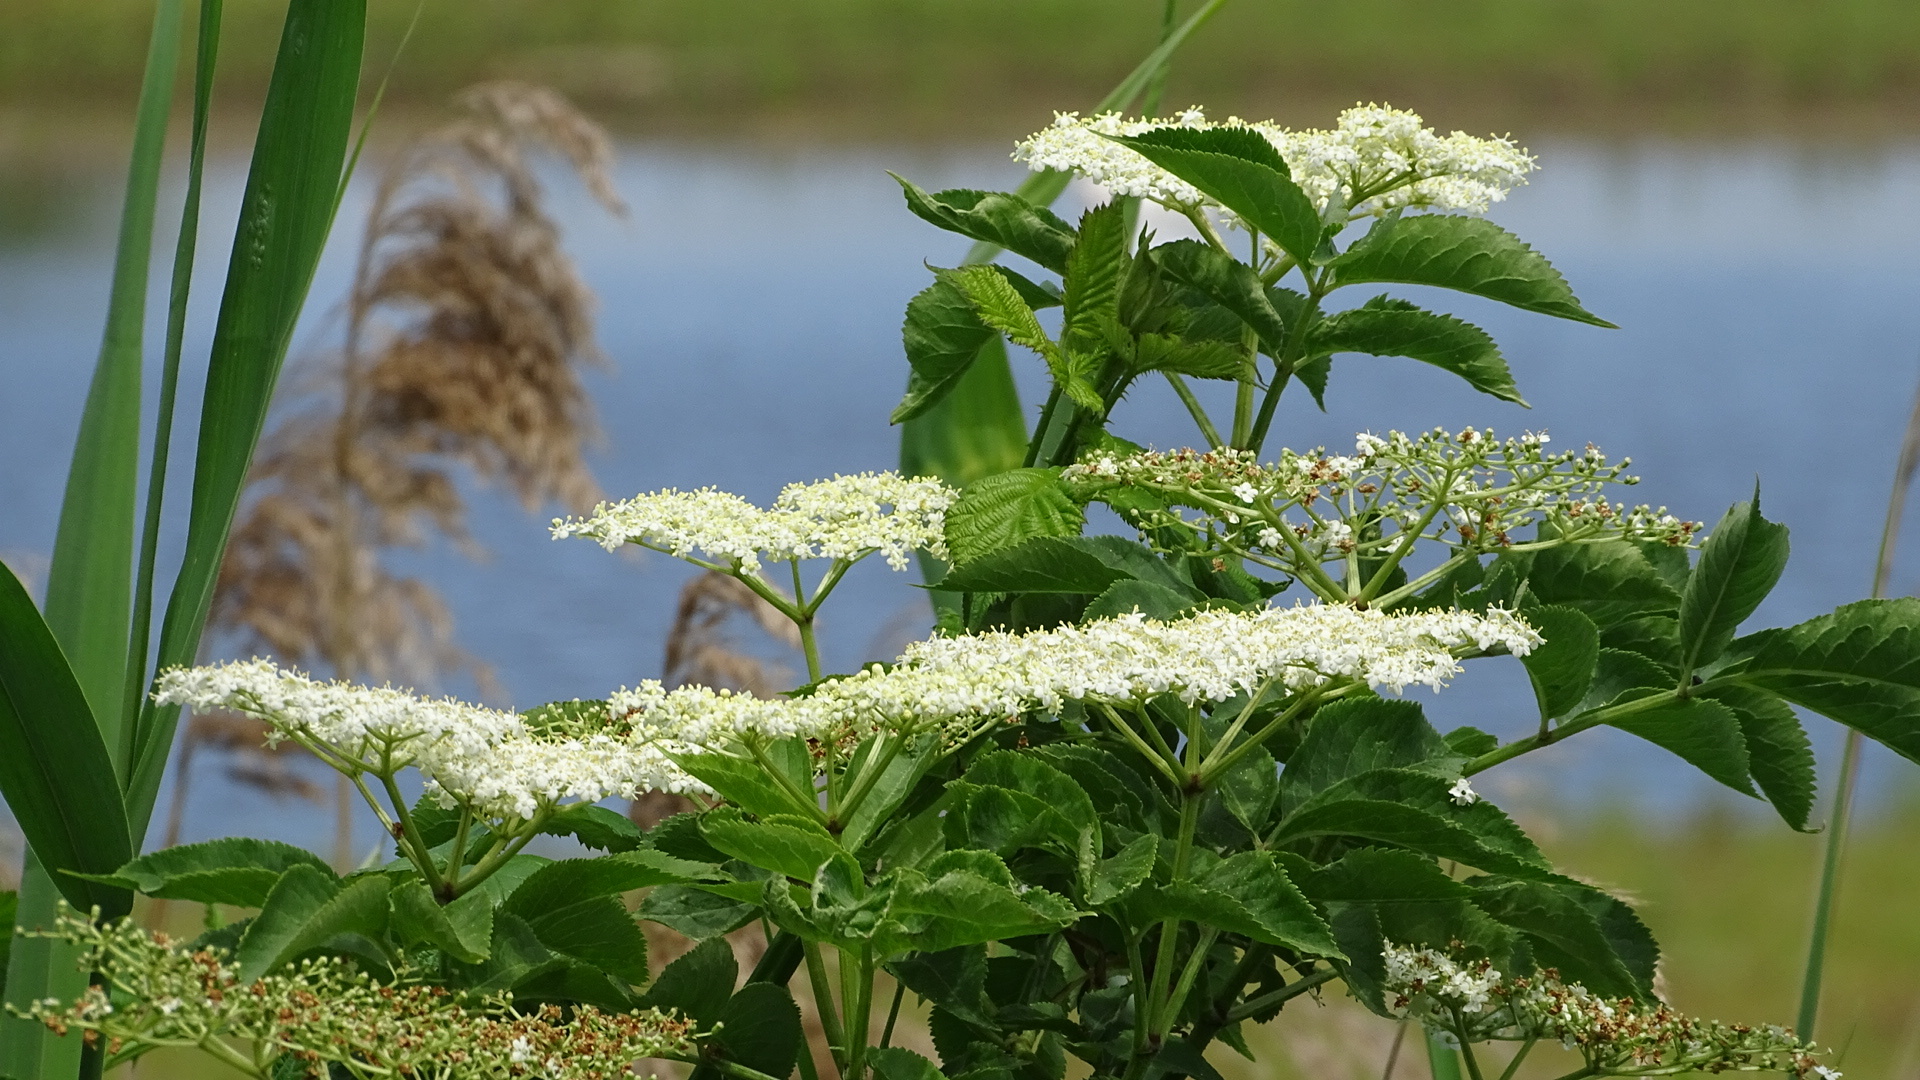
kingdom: Plantae
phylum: Tracheophyta
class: Magnoliopsida
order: Dipsacales
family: Viburnaceae
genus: Sambucus
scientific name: Sambucus nigra
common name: Elder
